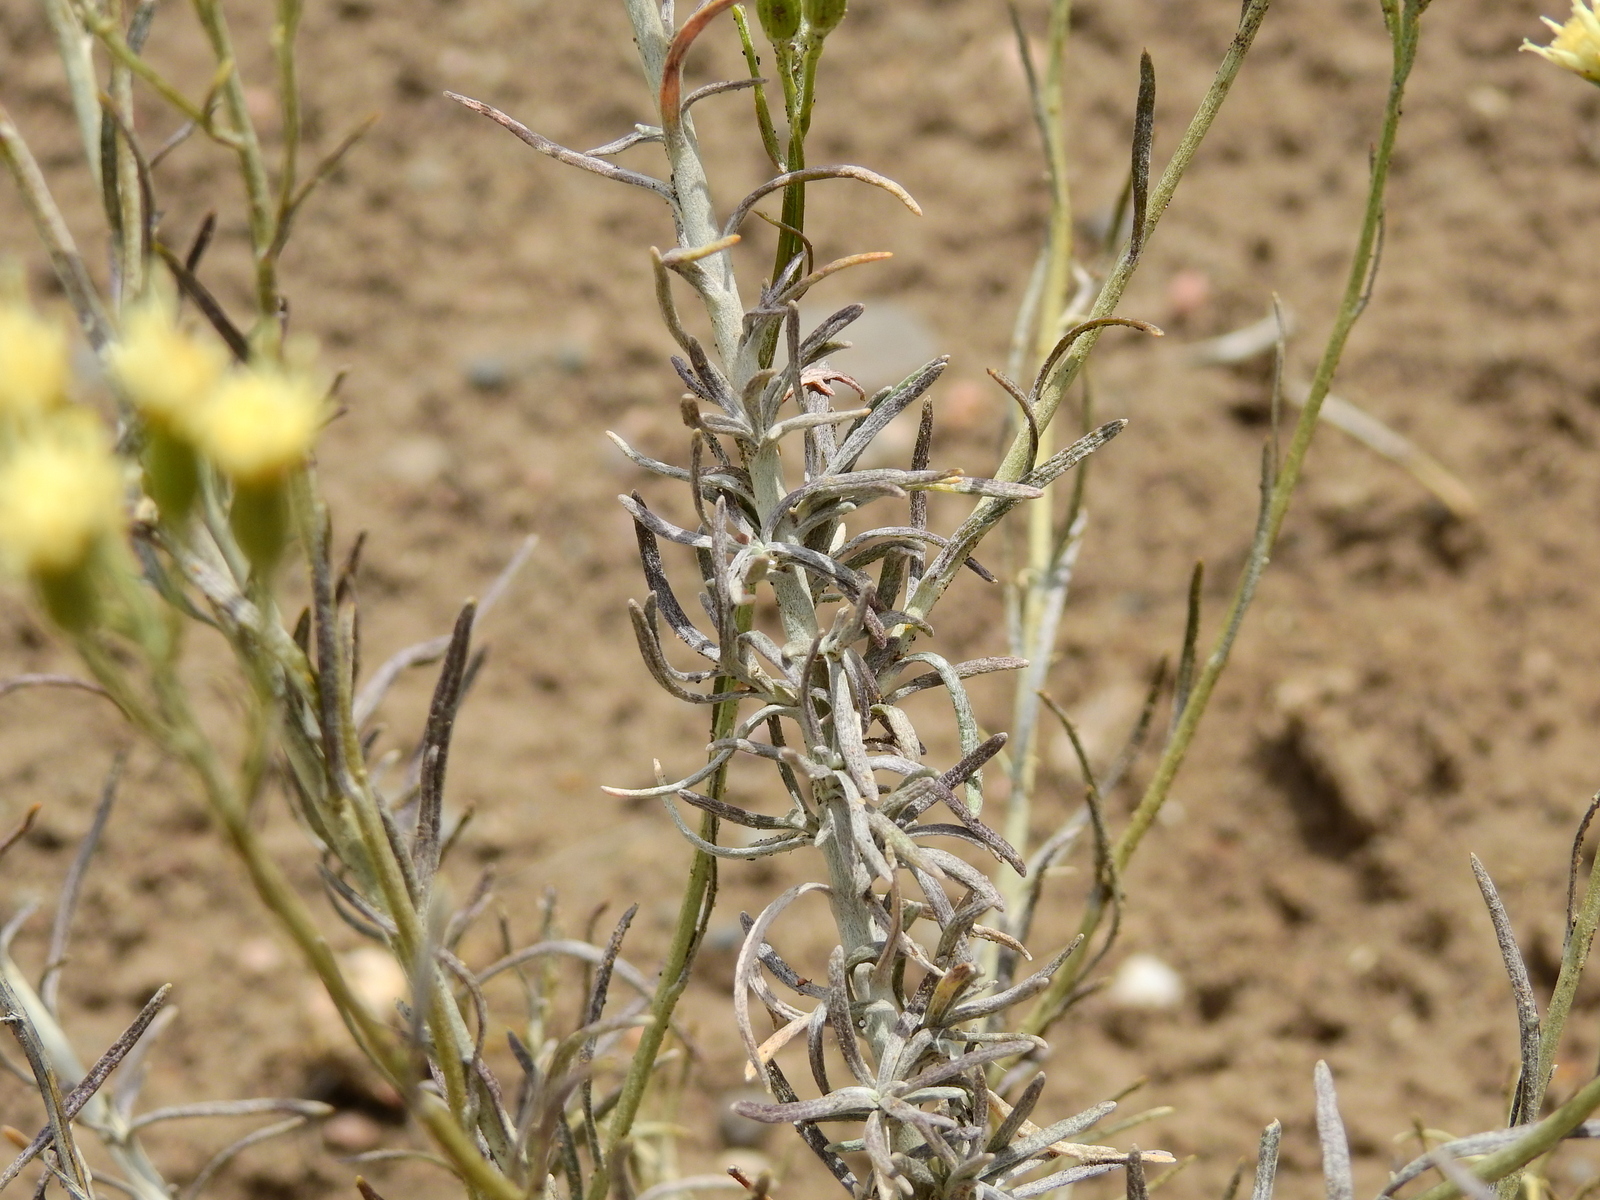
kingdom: Plantae
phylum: Tracheophyta
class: Magnoliopsida
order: Asterales
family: Asteraceae
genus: Senecio
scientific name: Senecio filaginoides
